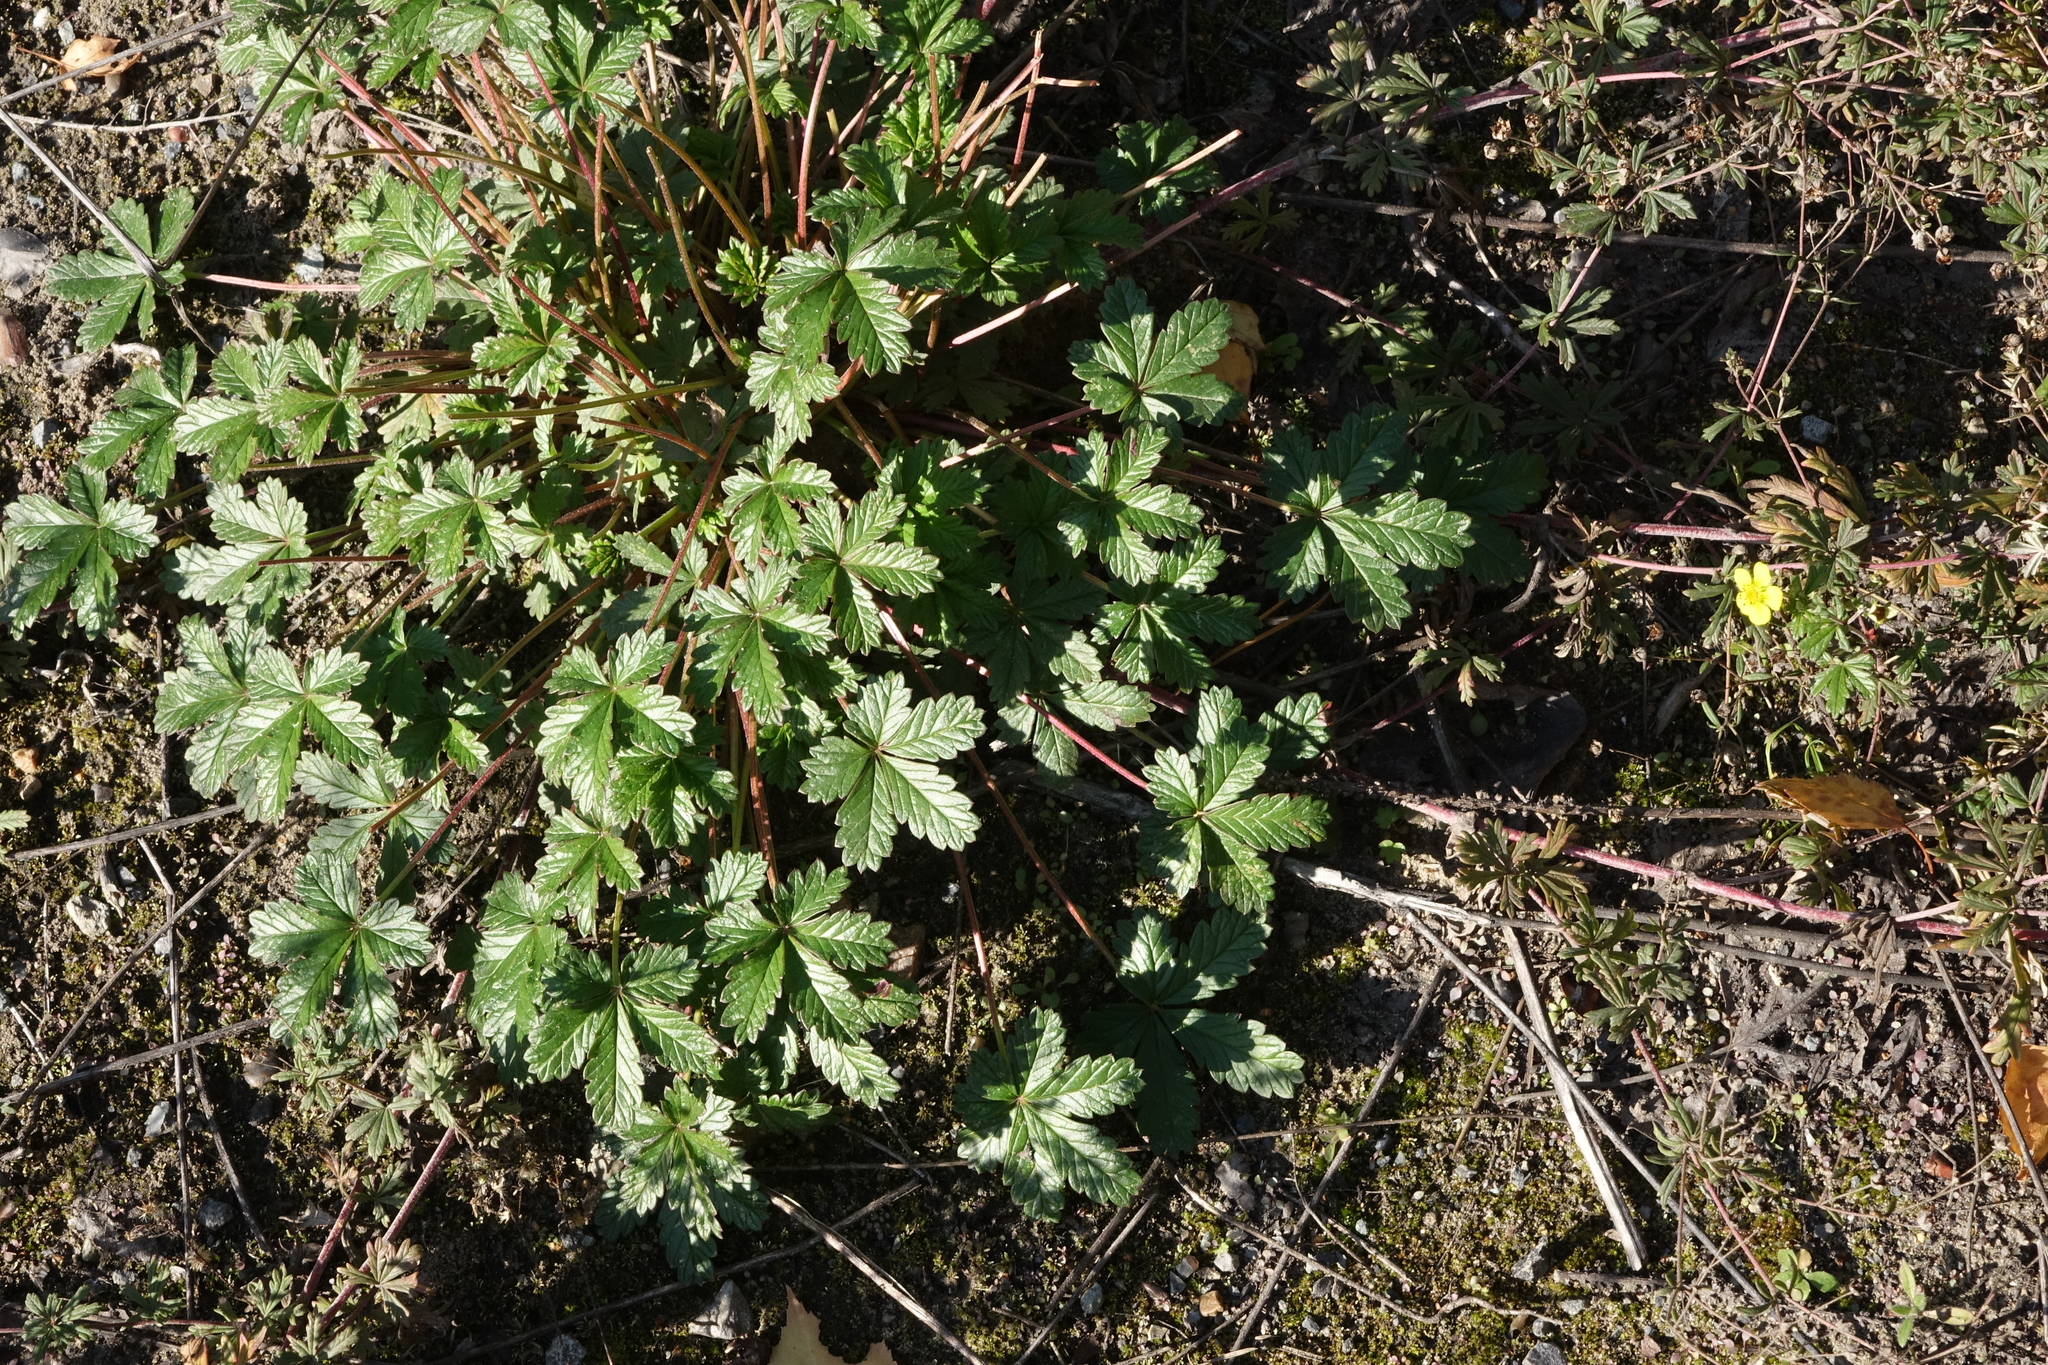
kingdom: Plantae
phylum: Tracheophyta
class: Magnoliopsida
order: Rosales
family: Rosaceae
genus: Potentilla
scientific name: Potentilla chrysantha
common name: Thuringian cinquefoil
